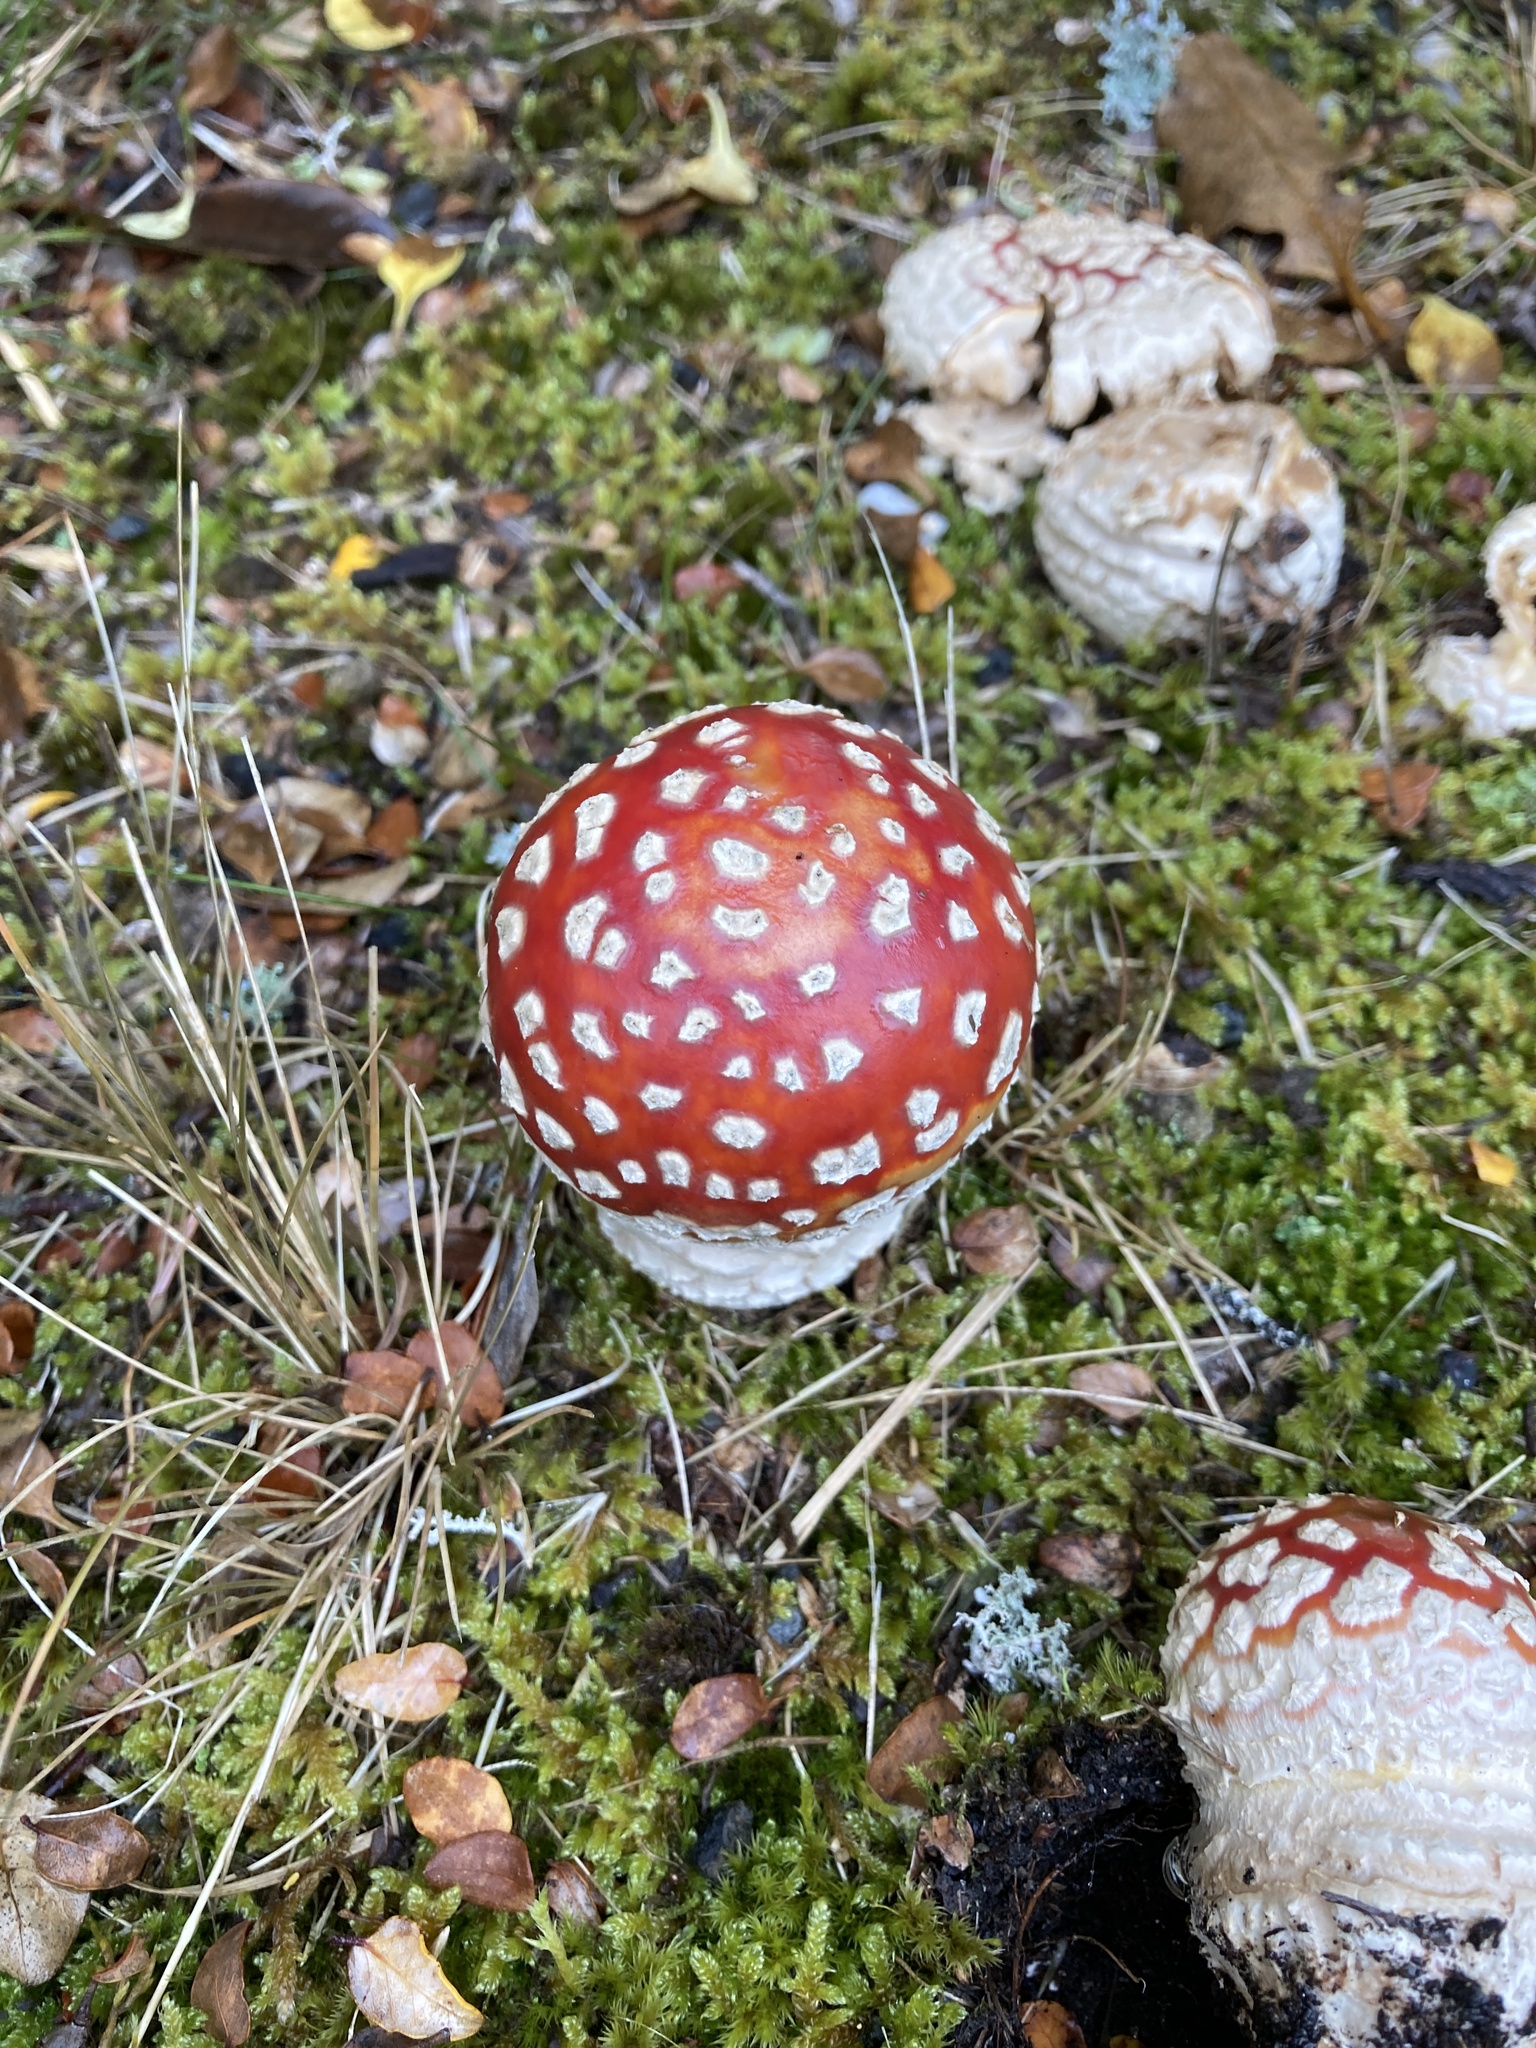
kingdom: Fungi
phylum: Basidiomycota
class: Agaricomycetes
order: Agaricales
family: Amanitaceae
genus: Amanita
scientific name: Amanita muscaria
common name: Fly agaric
